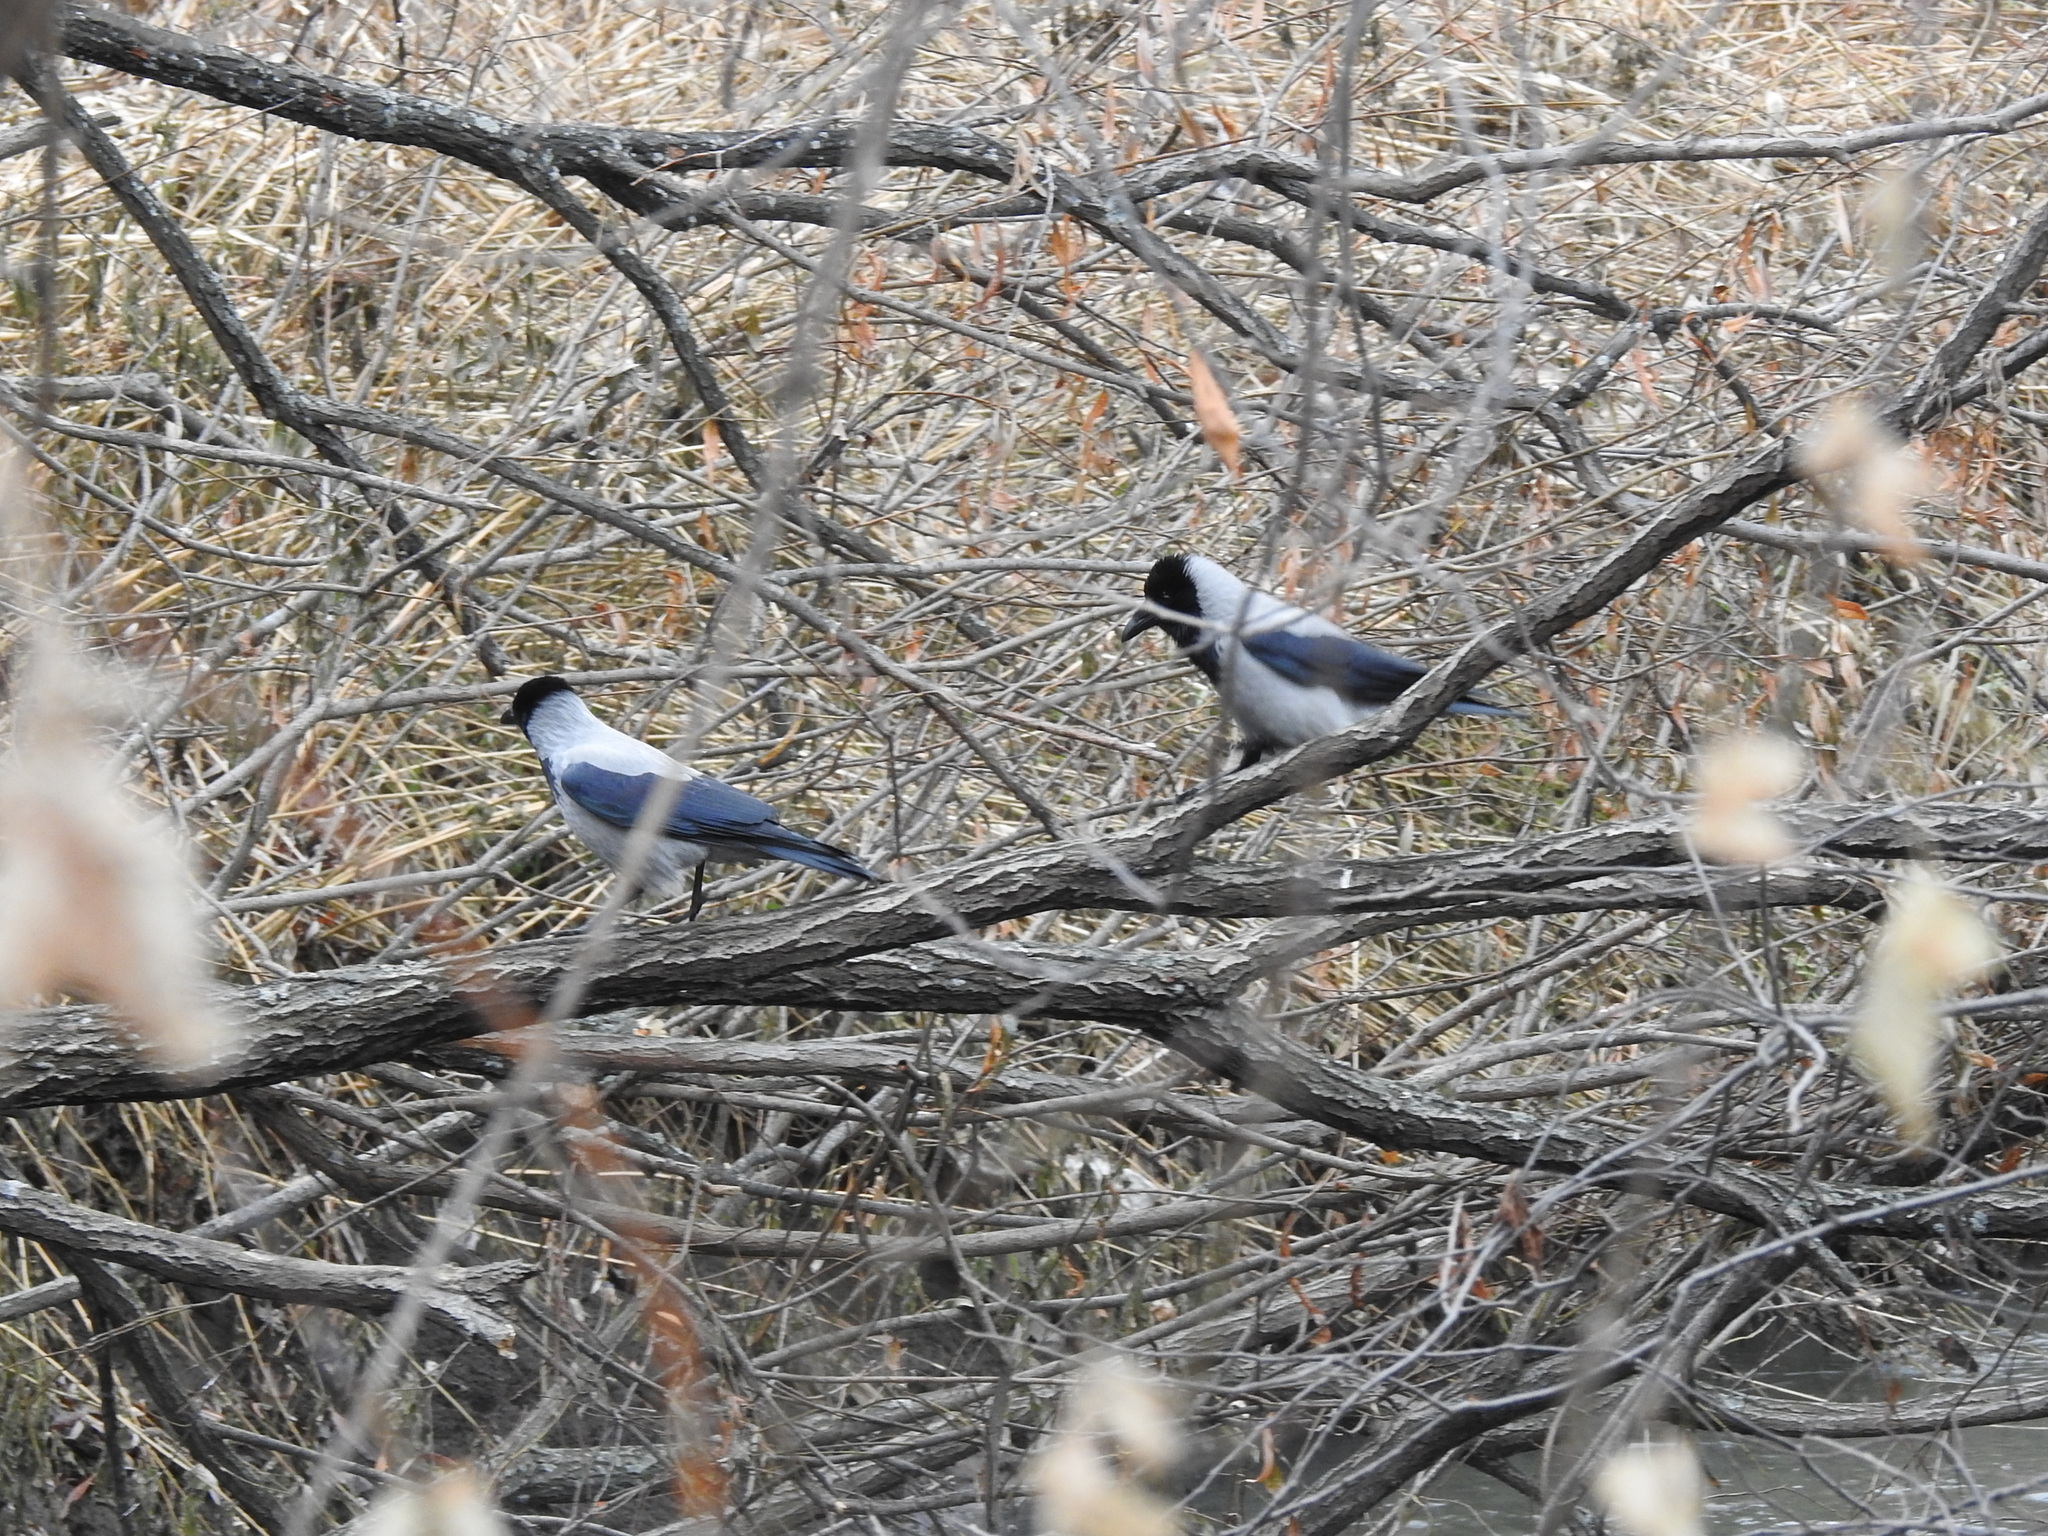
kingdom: Animalia
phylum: Chordata
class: Aves
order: Passeriformes
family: Corvidae
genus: Corvus
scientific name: Corvus cornix
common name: Hooded crow
